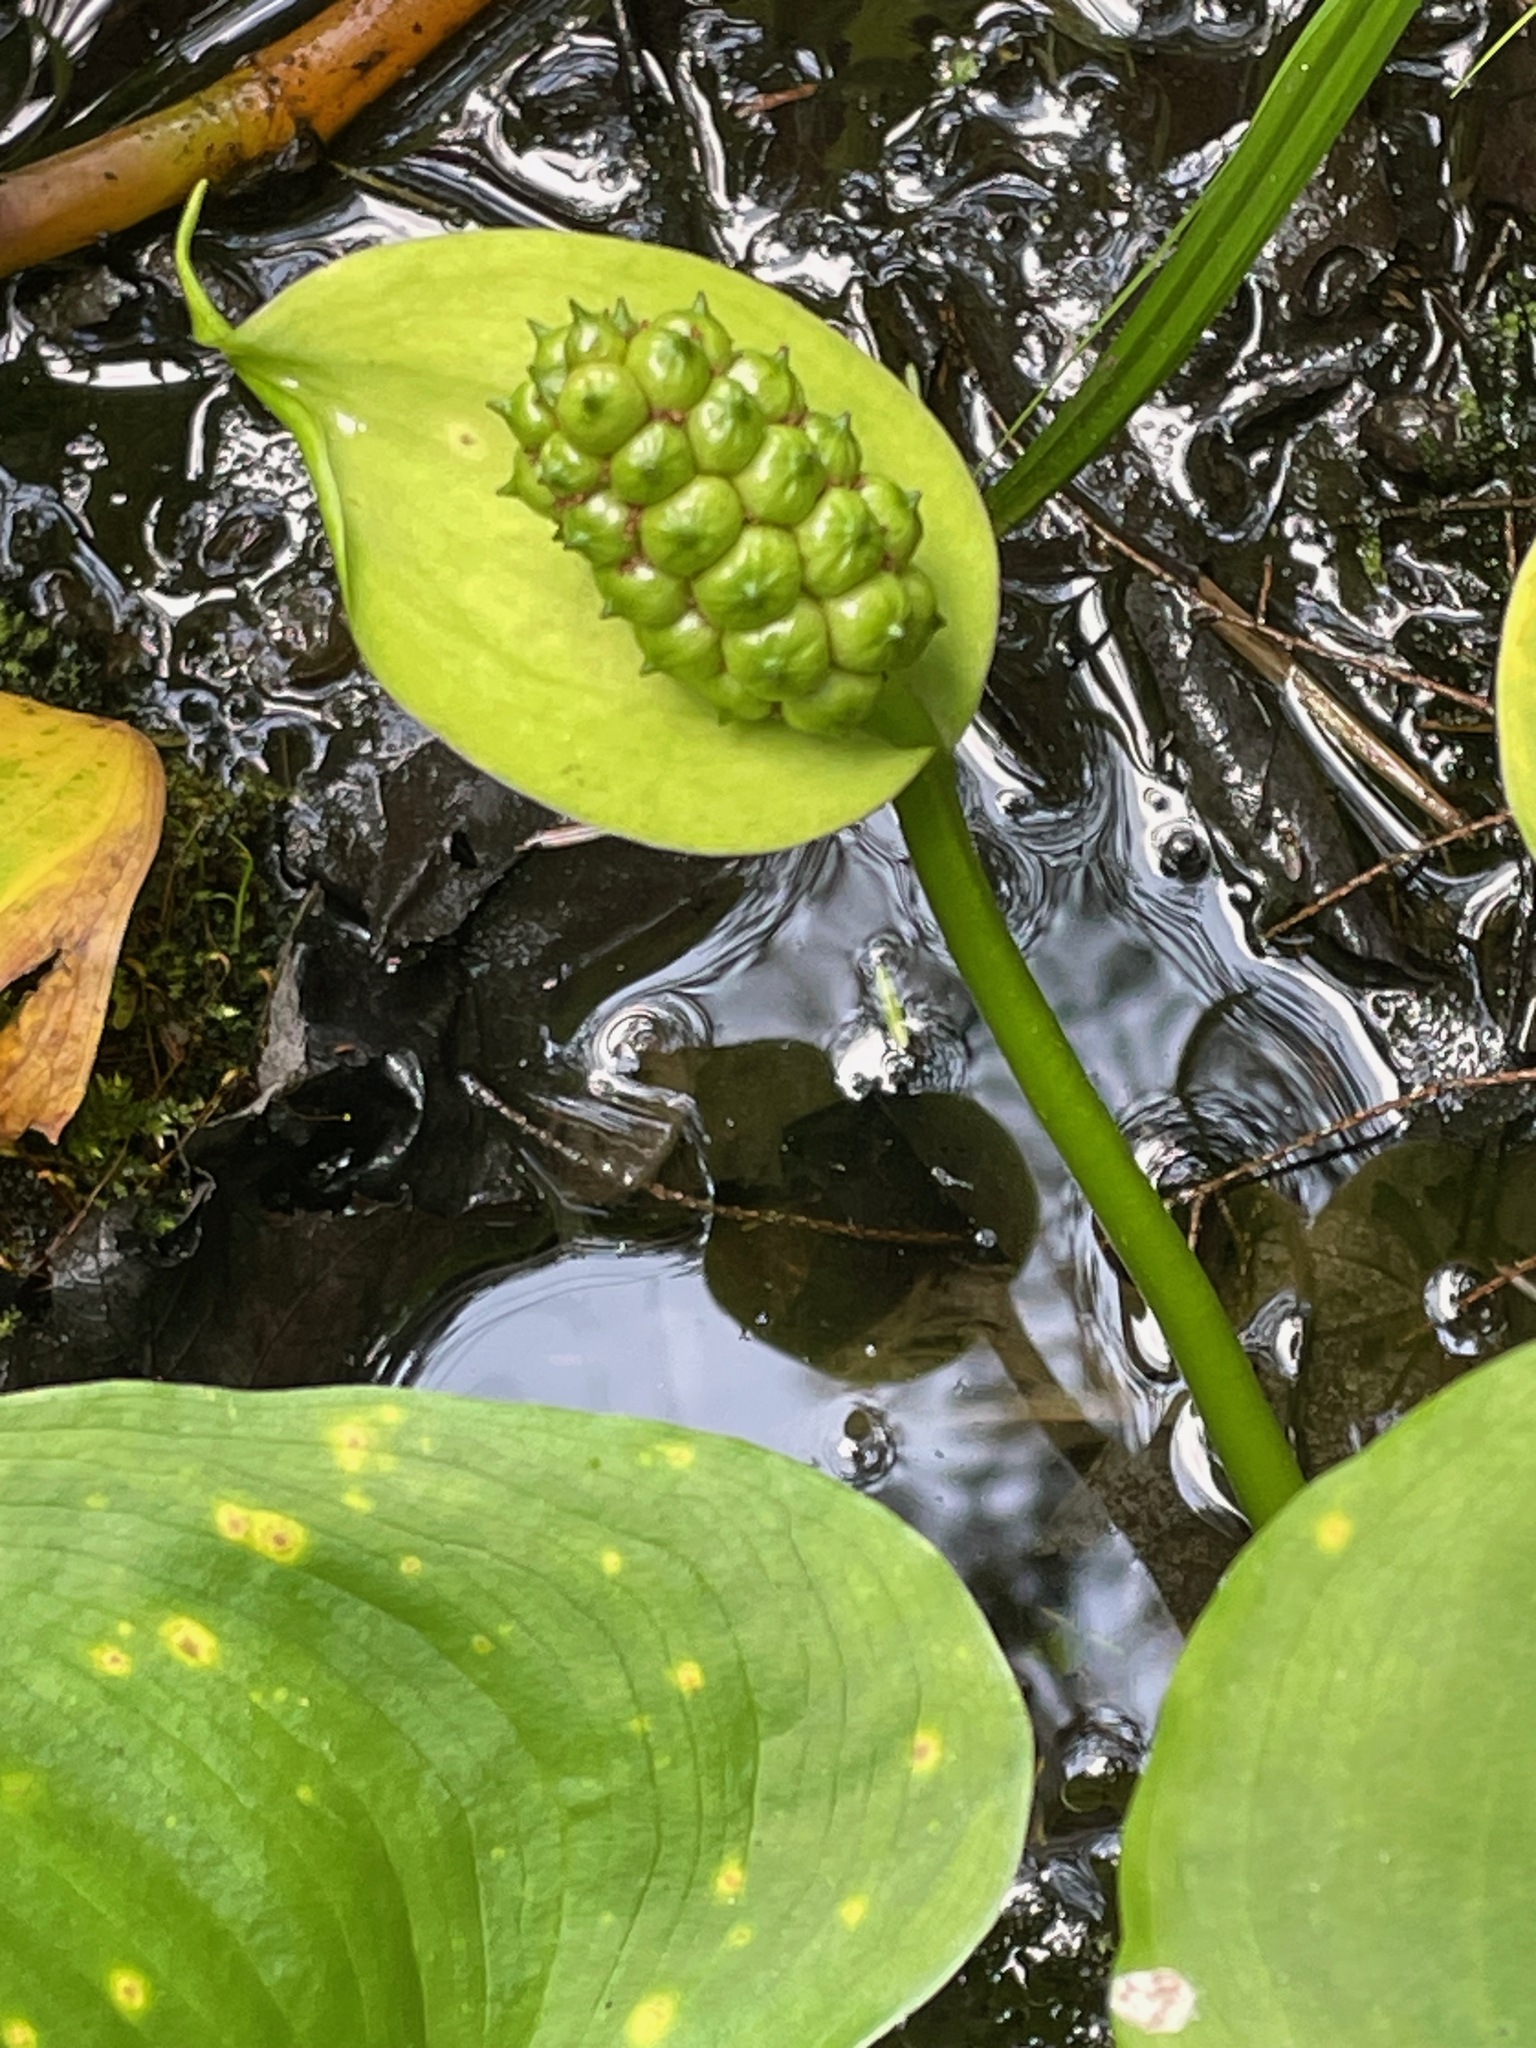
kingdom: Plantae
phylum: Tracheophyta
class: Liliopsida
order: Alismatales
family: Araceae
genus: Calla
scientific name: Calla palustris
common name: Bog arum
